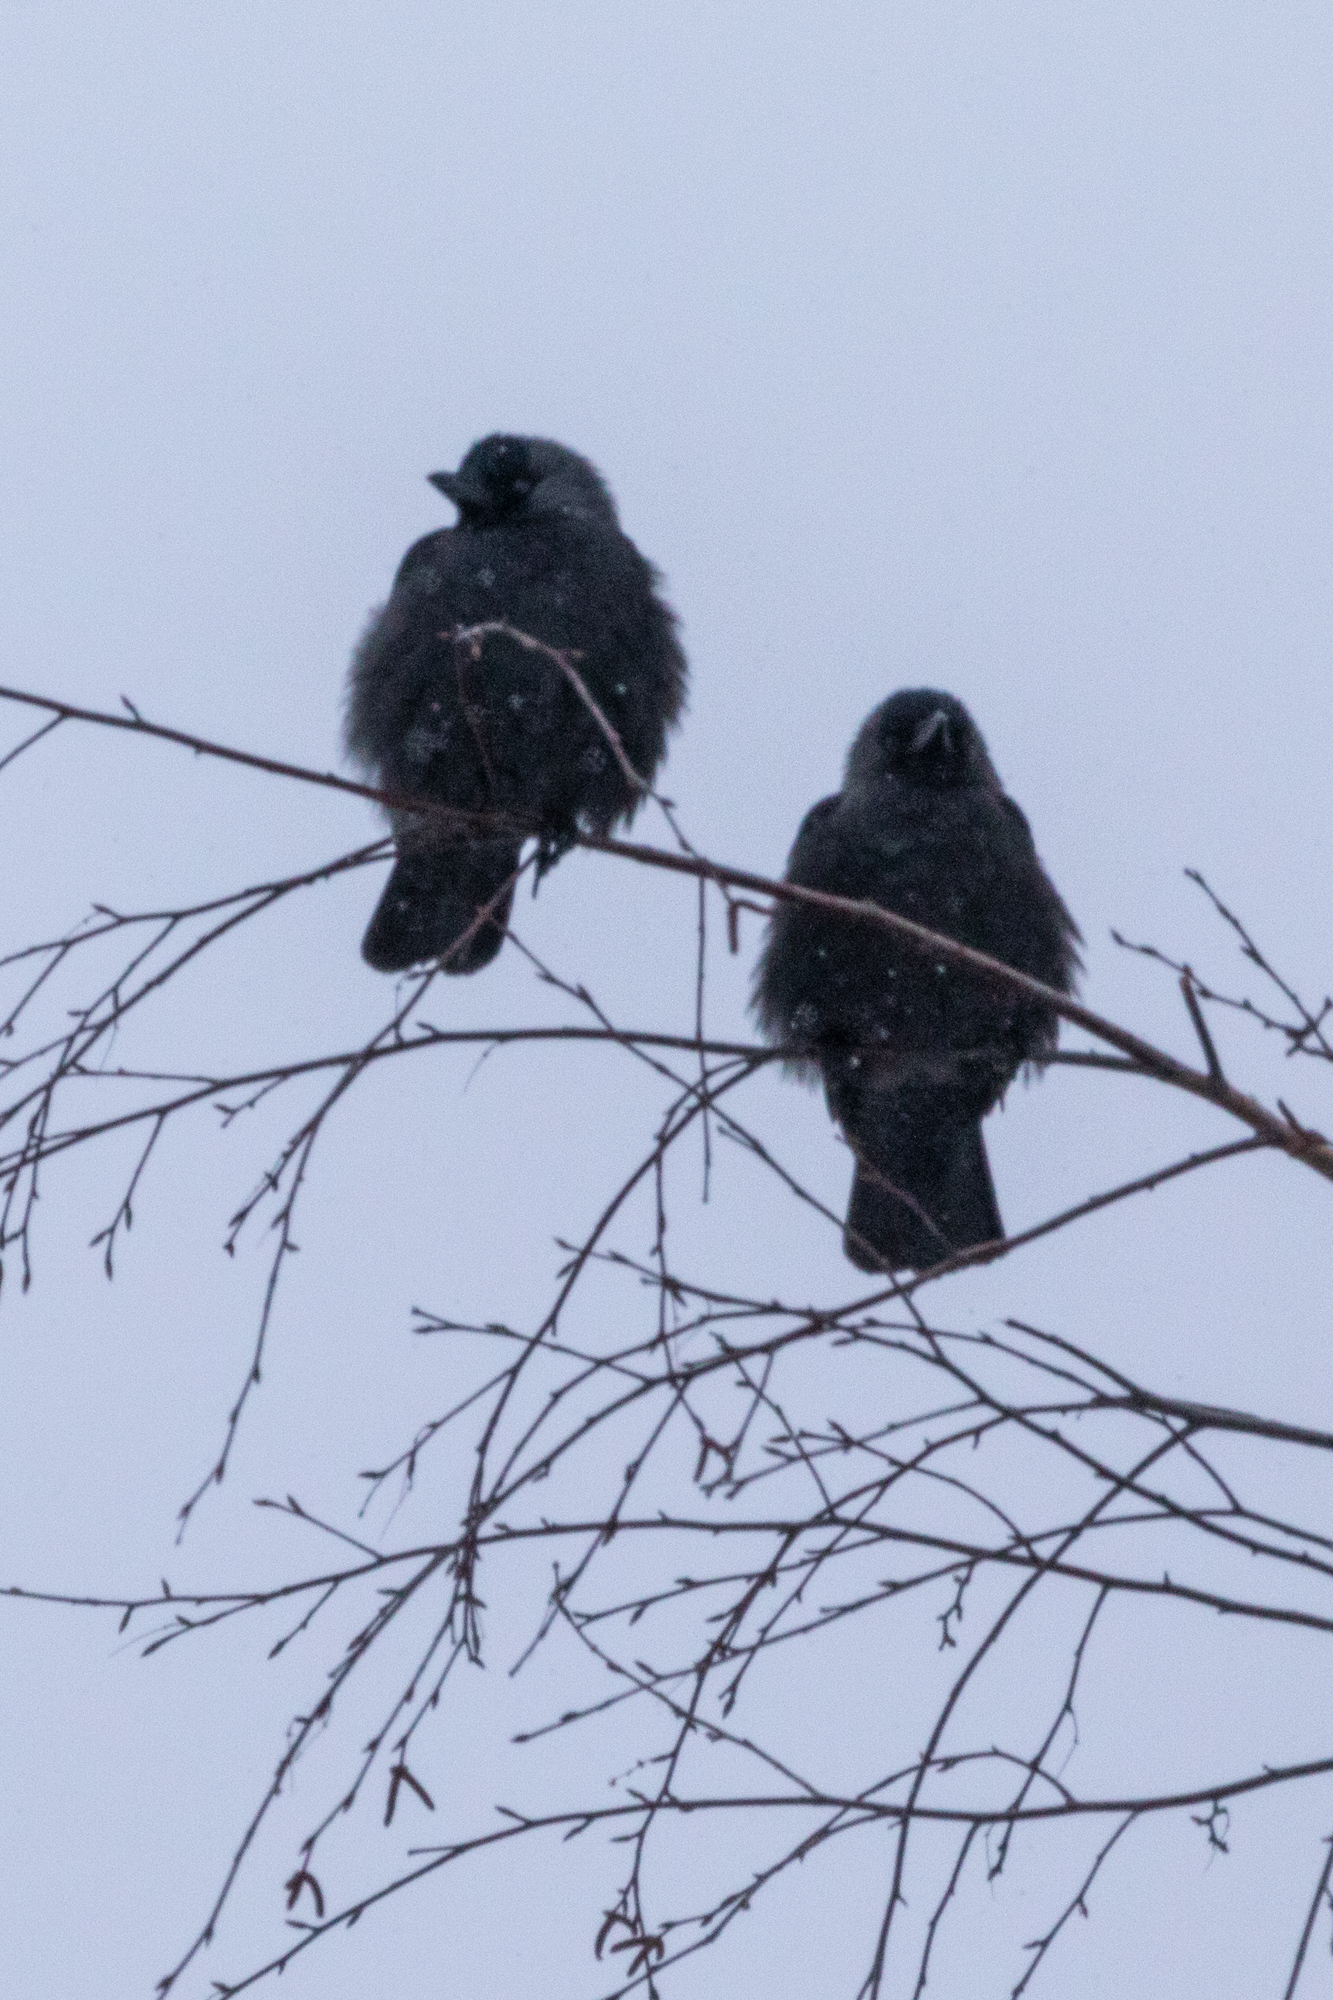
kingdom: Animalia
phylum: Chordata
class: Aves
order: Passeriformes
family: Corvidae
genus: Coloeus
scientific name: Coloeus monedula
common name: Western jackdaw
